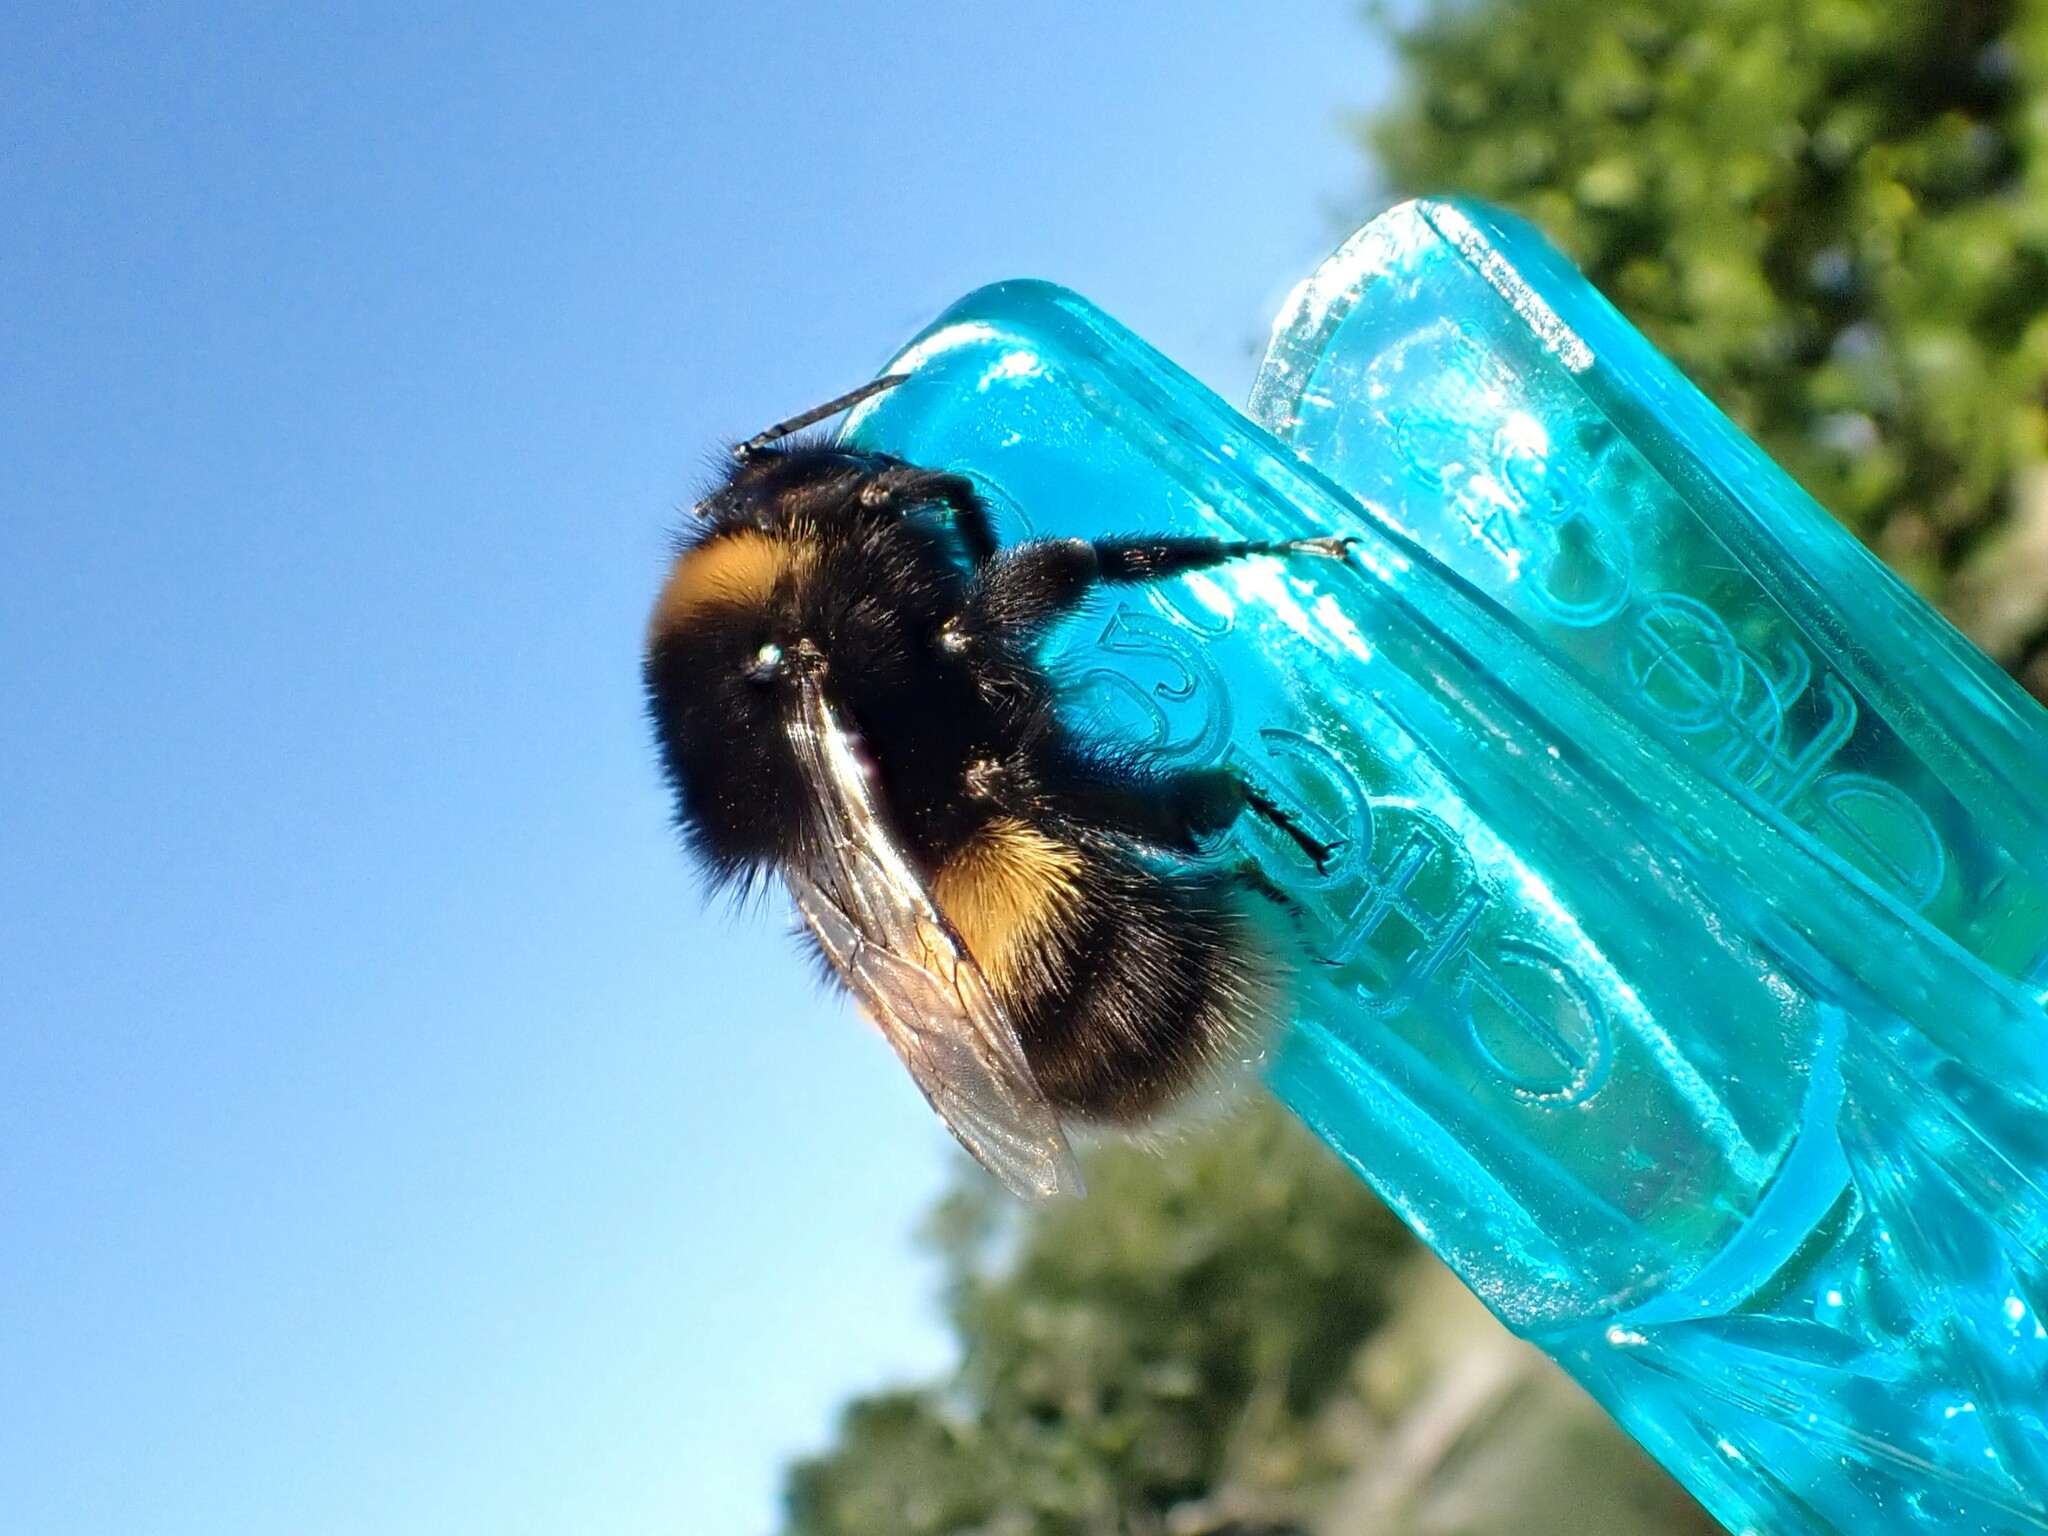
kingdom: Animalia
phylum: Arthropoda
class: Insecta
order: Hymenoptera
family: Apidae
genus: Bombus
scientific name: Bombus terrestris
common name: Buff-tailed bumblebee
